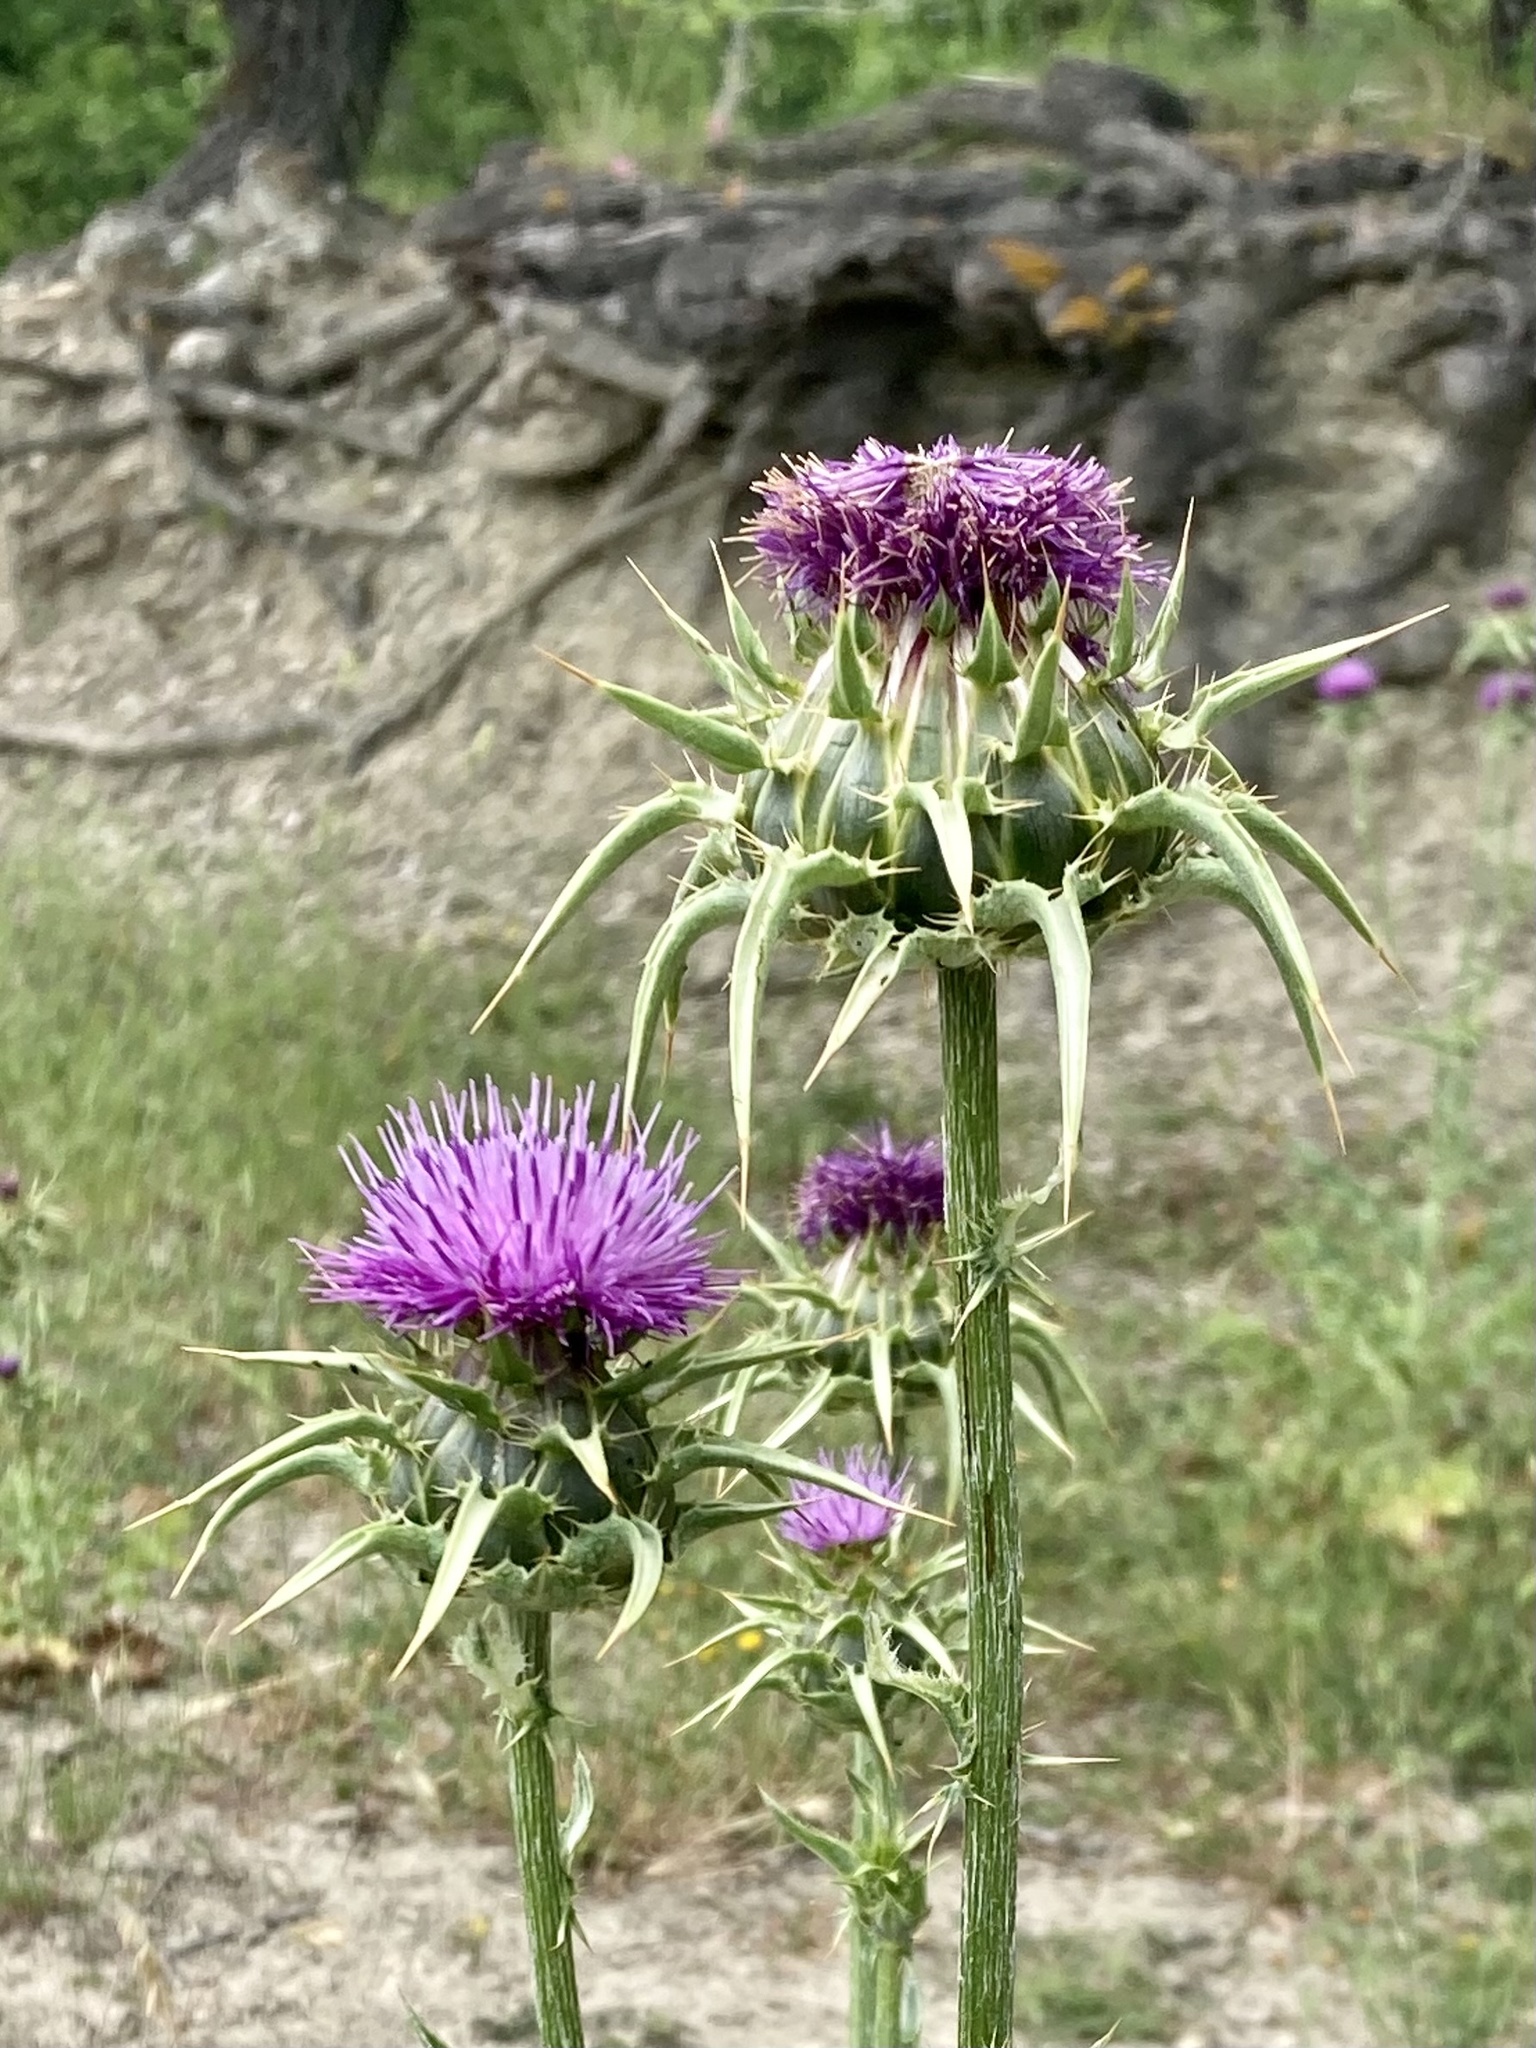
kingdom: Plantae
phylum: Tracheophyta
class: Magnoliopsida
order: Asterales
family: Asteraceae
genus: Silybum
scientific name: Silybum marianum
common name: Milk thistle
